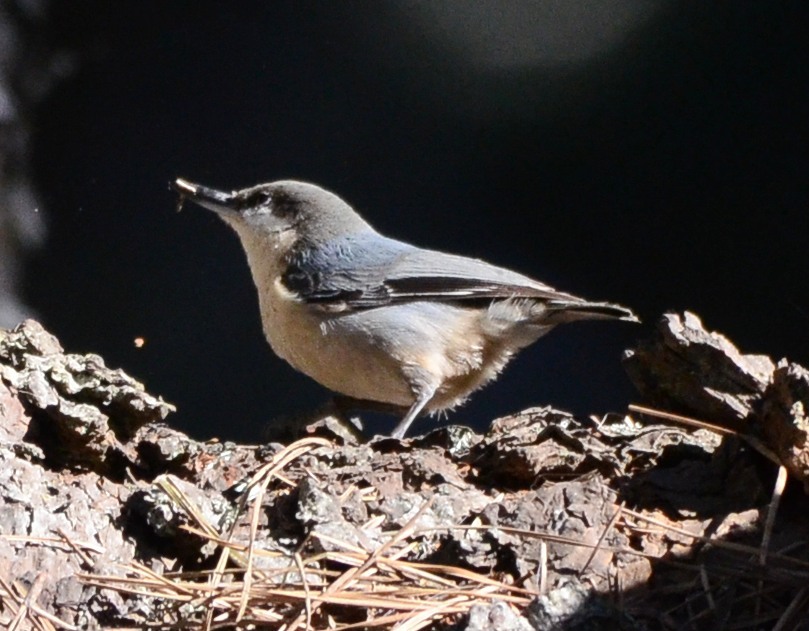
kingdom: Animalia
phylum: Chordata
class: Aves
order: Passeriformes
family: Sittidae
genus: Sitta
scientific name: Sitta pygmaea
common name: Pygmy nuthatch
